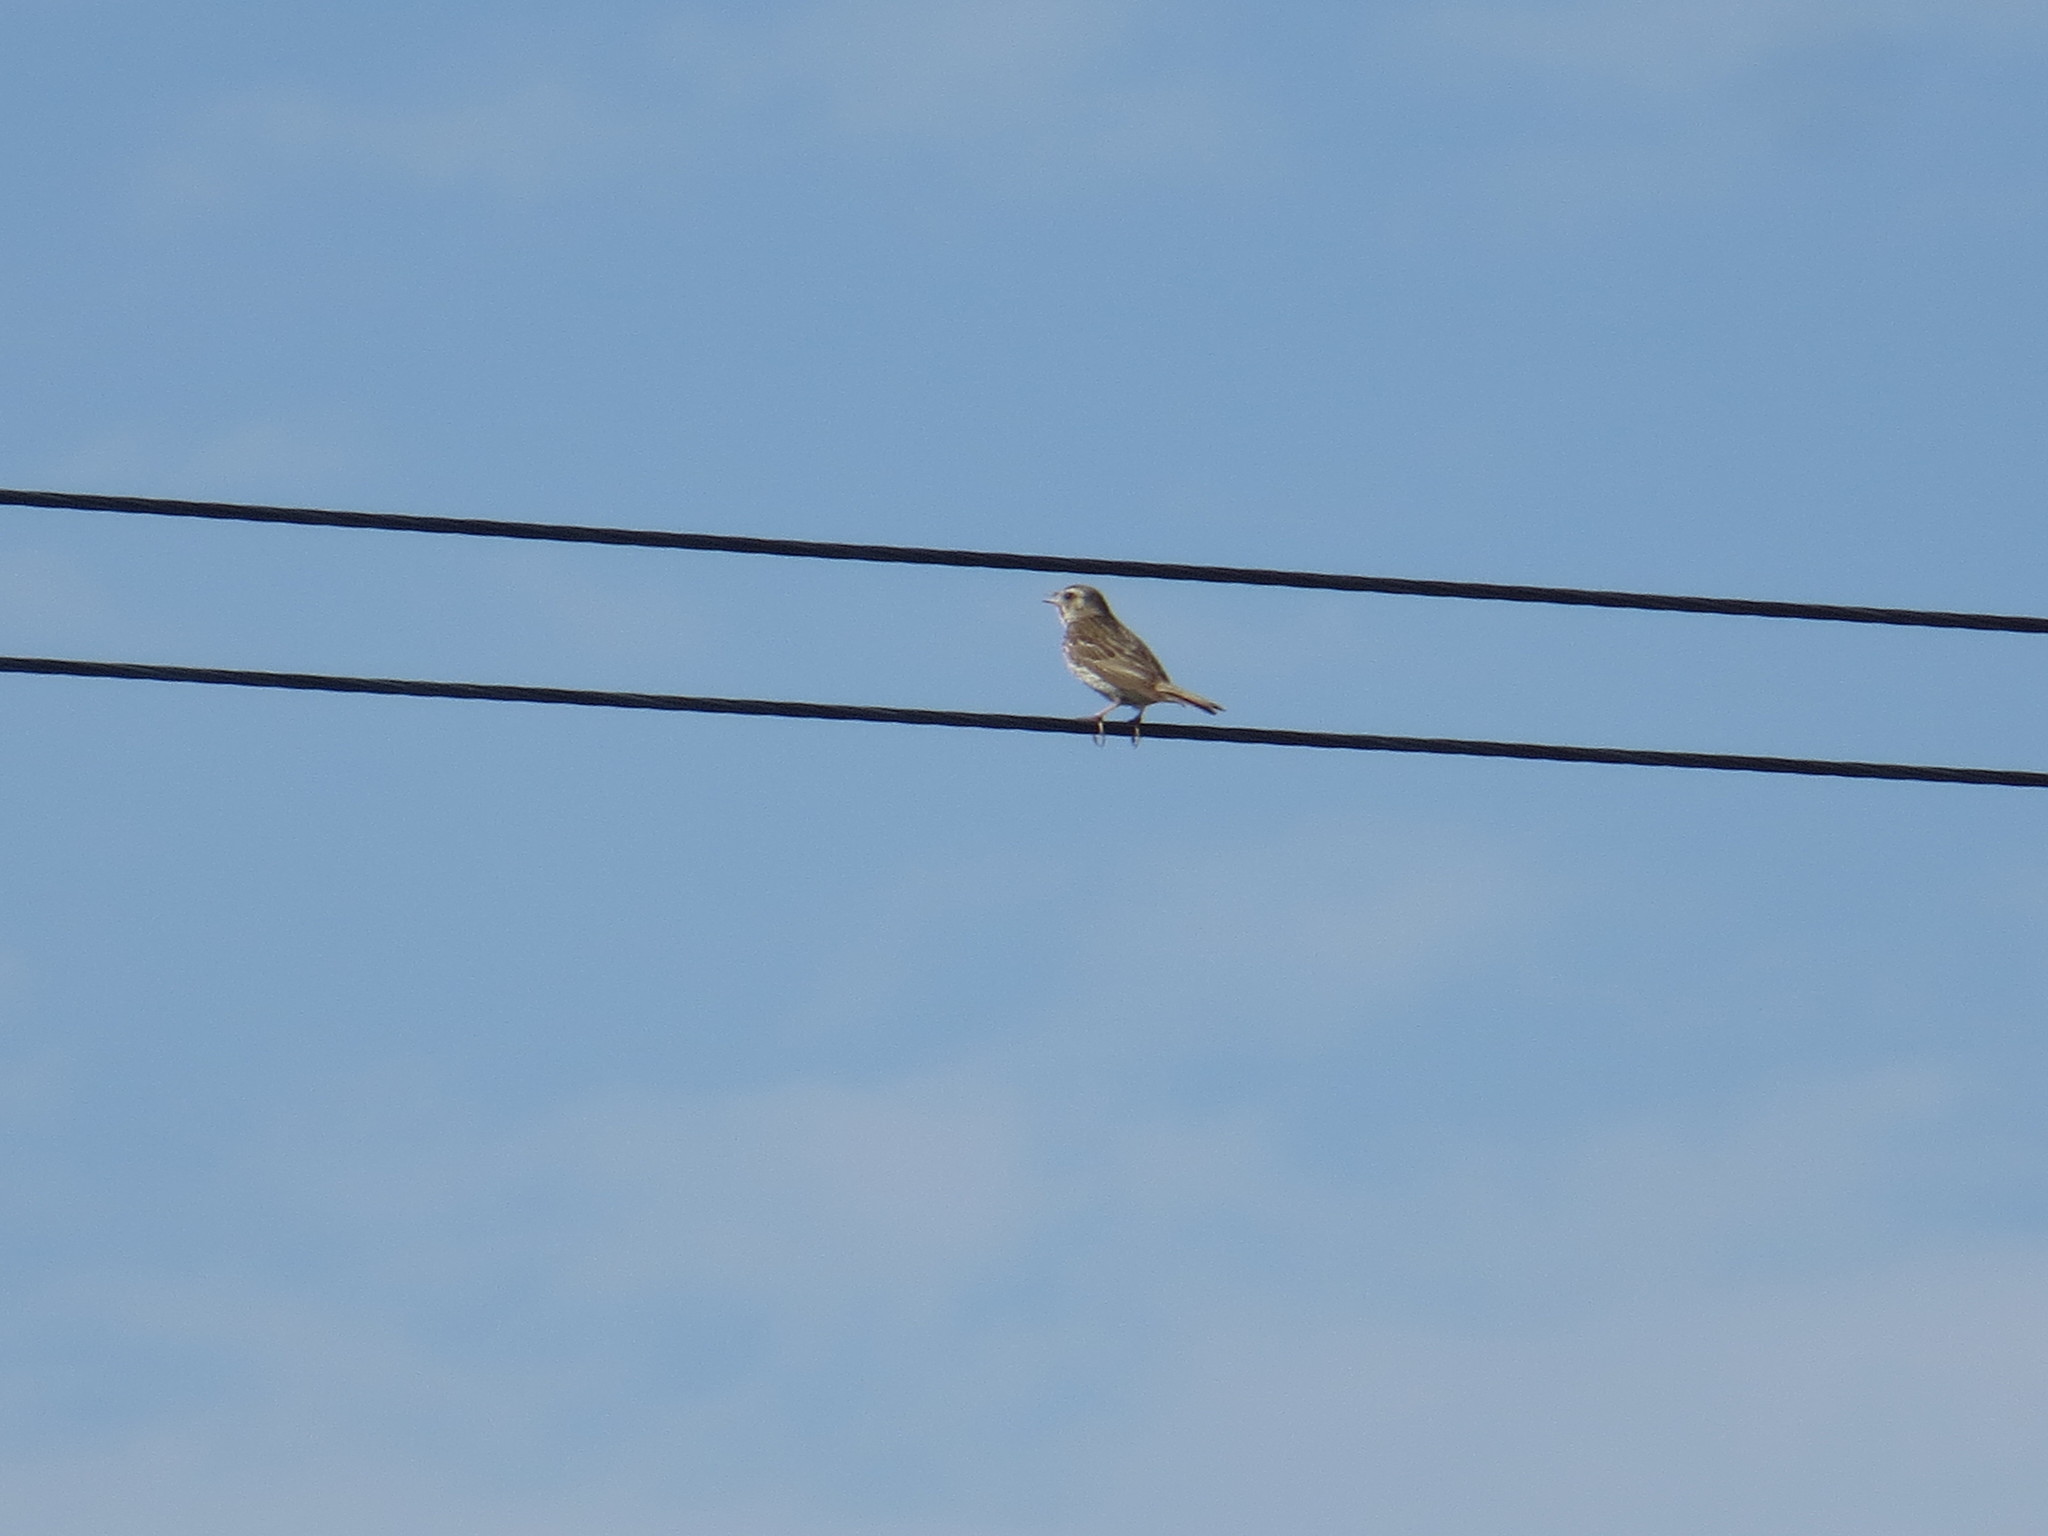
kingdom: Animalia
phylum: Chordata
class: Aves
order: Passeriformes
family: Motacillidae
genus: Anthus
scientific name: Anthus trivialis
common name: Tree pipit
